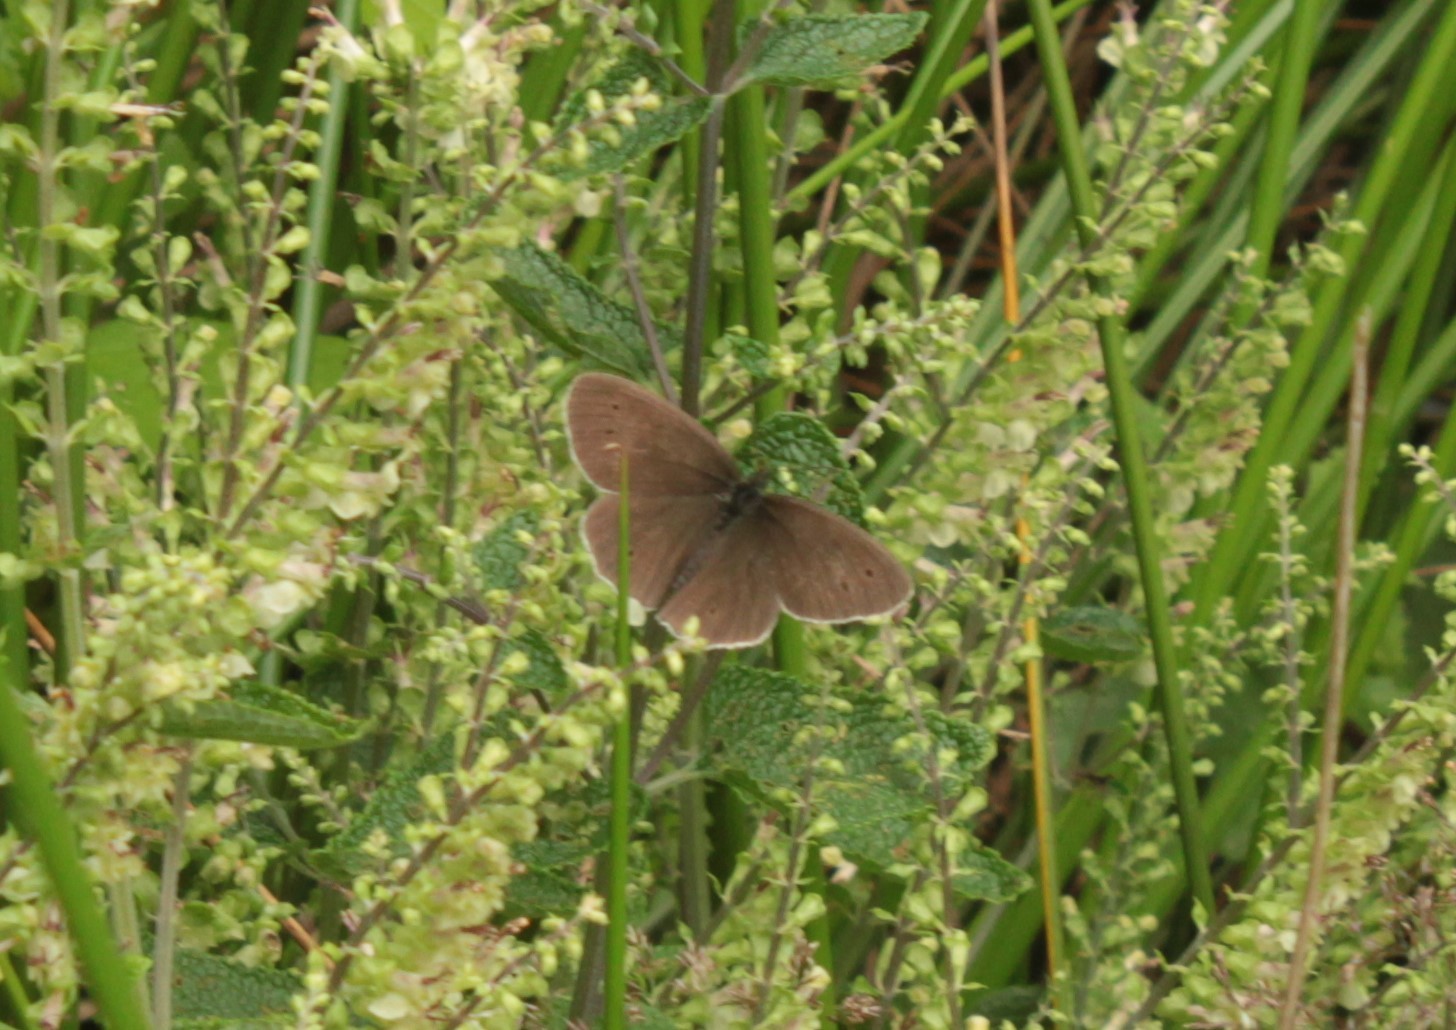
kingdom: Animalia
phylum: Arthropoda
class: Insecta
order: Lepidoptera
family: Nymphalidae
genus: Aphantopus
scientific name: Aphantopus hyperantus
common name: Ringlet
